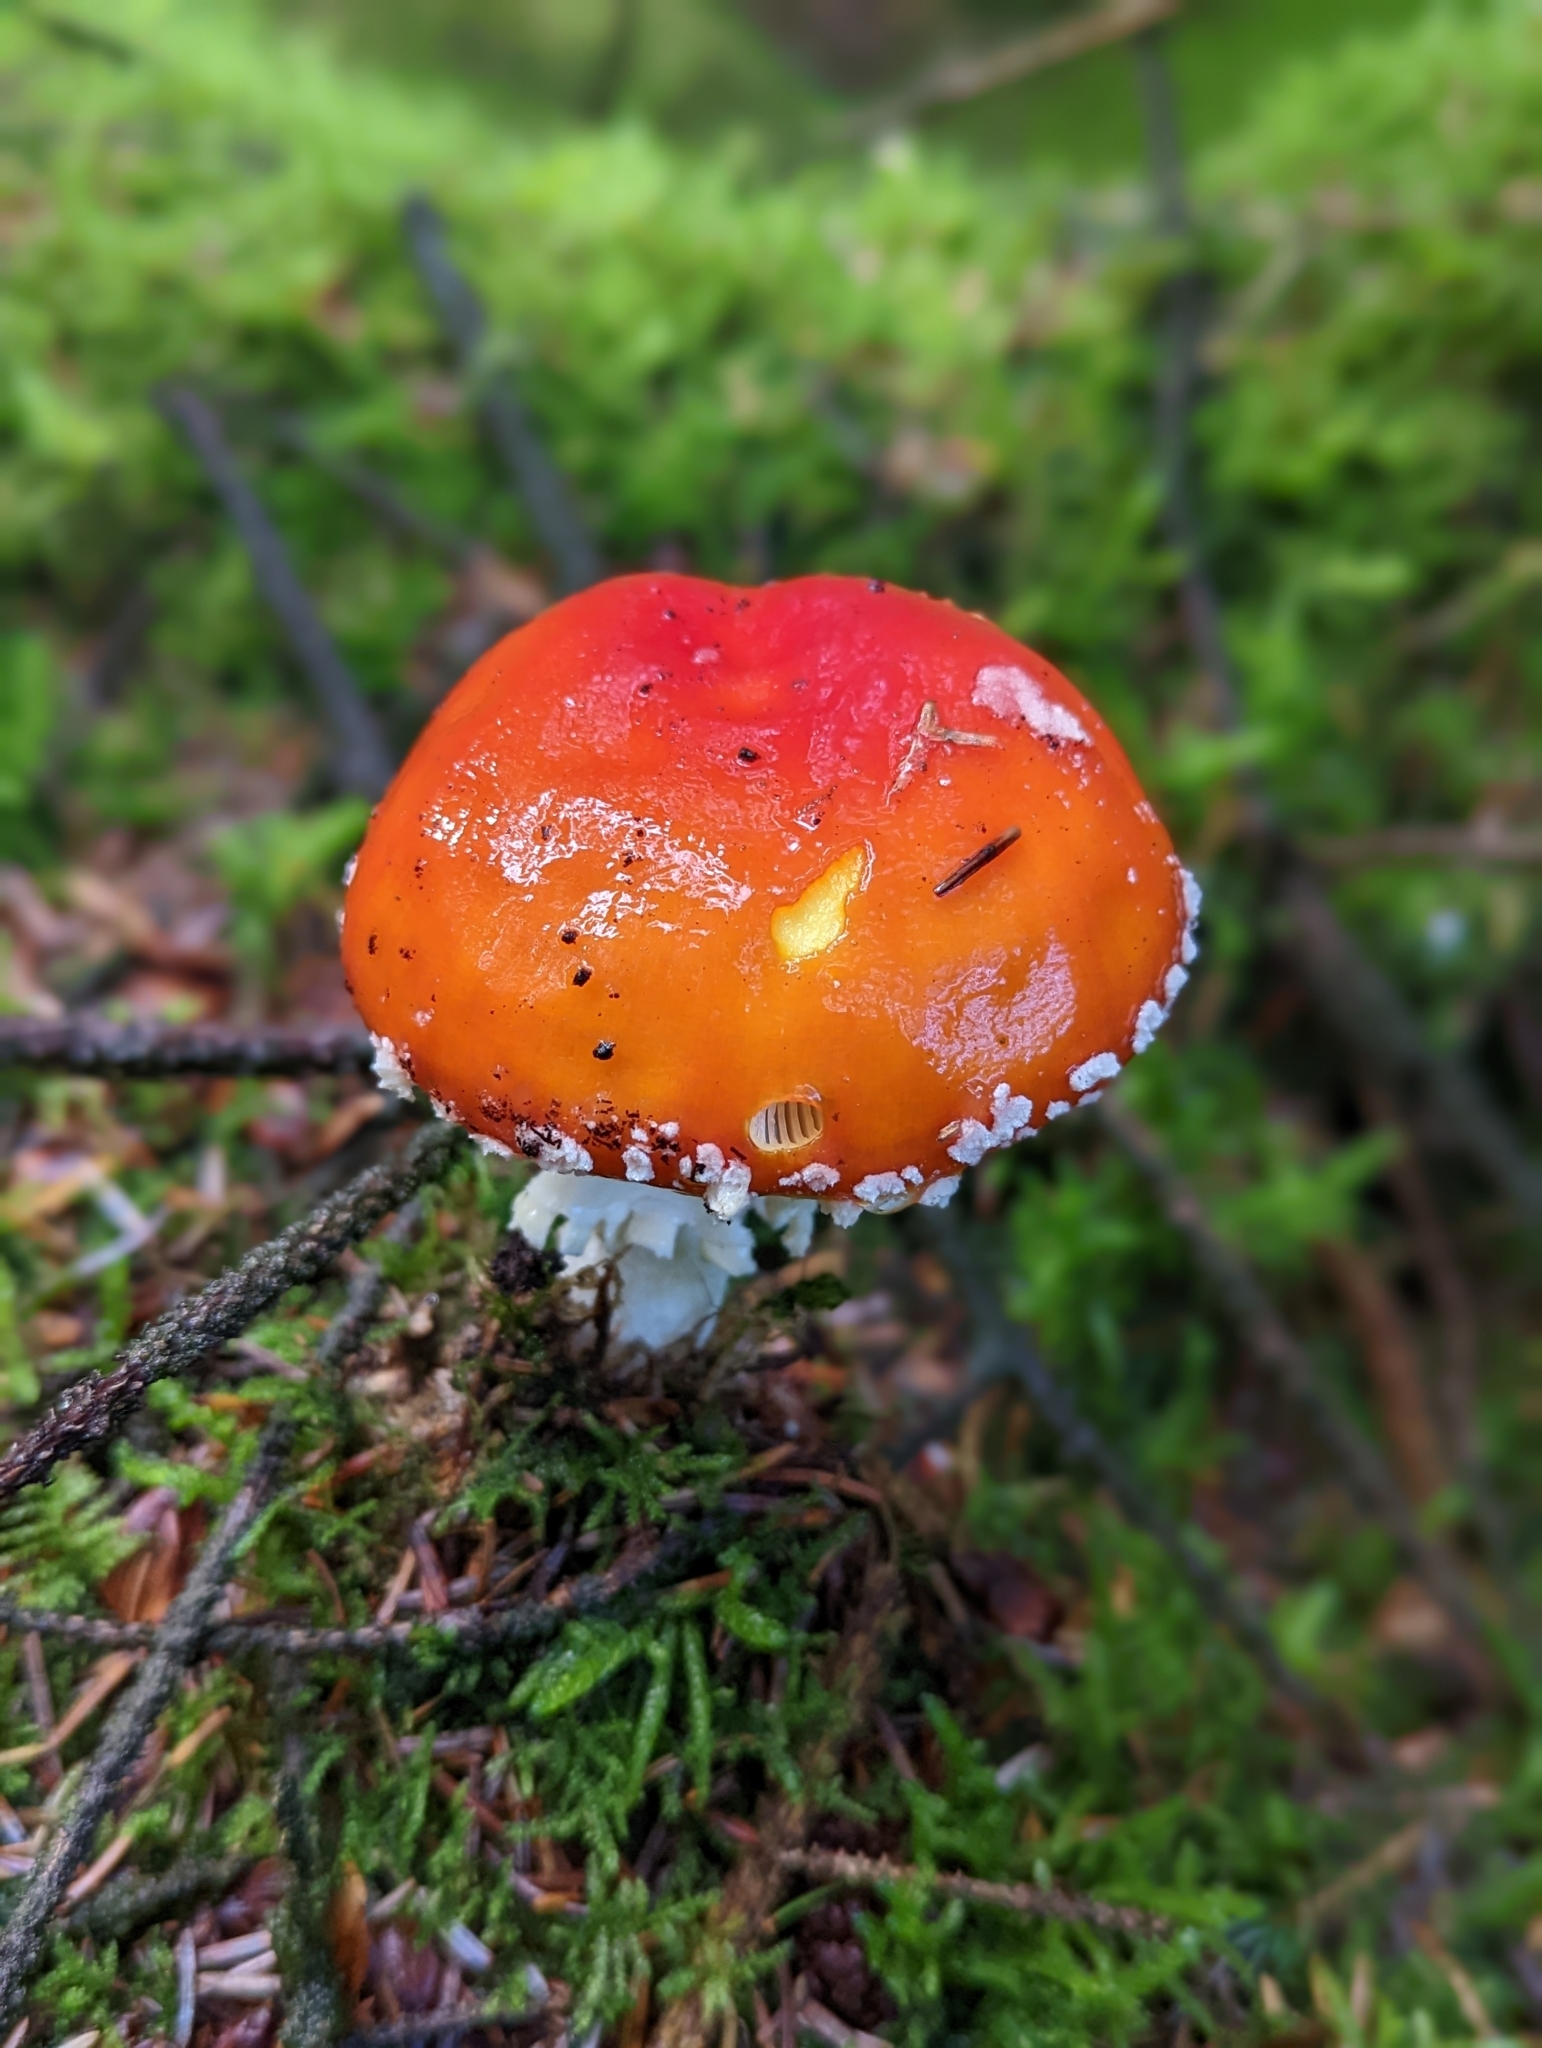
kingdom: Fungi
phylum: Basidiomycota
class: Agaricomycetes
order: Agaricales
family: Amanitaceae
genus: Amanita
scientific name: Amanita muscaria
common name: Fly agaric
